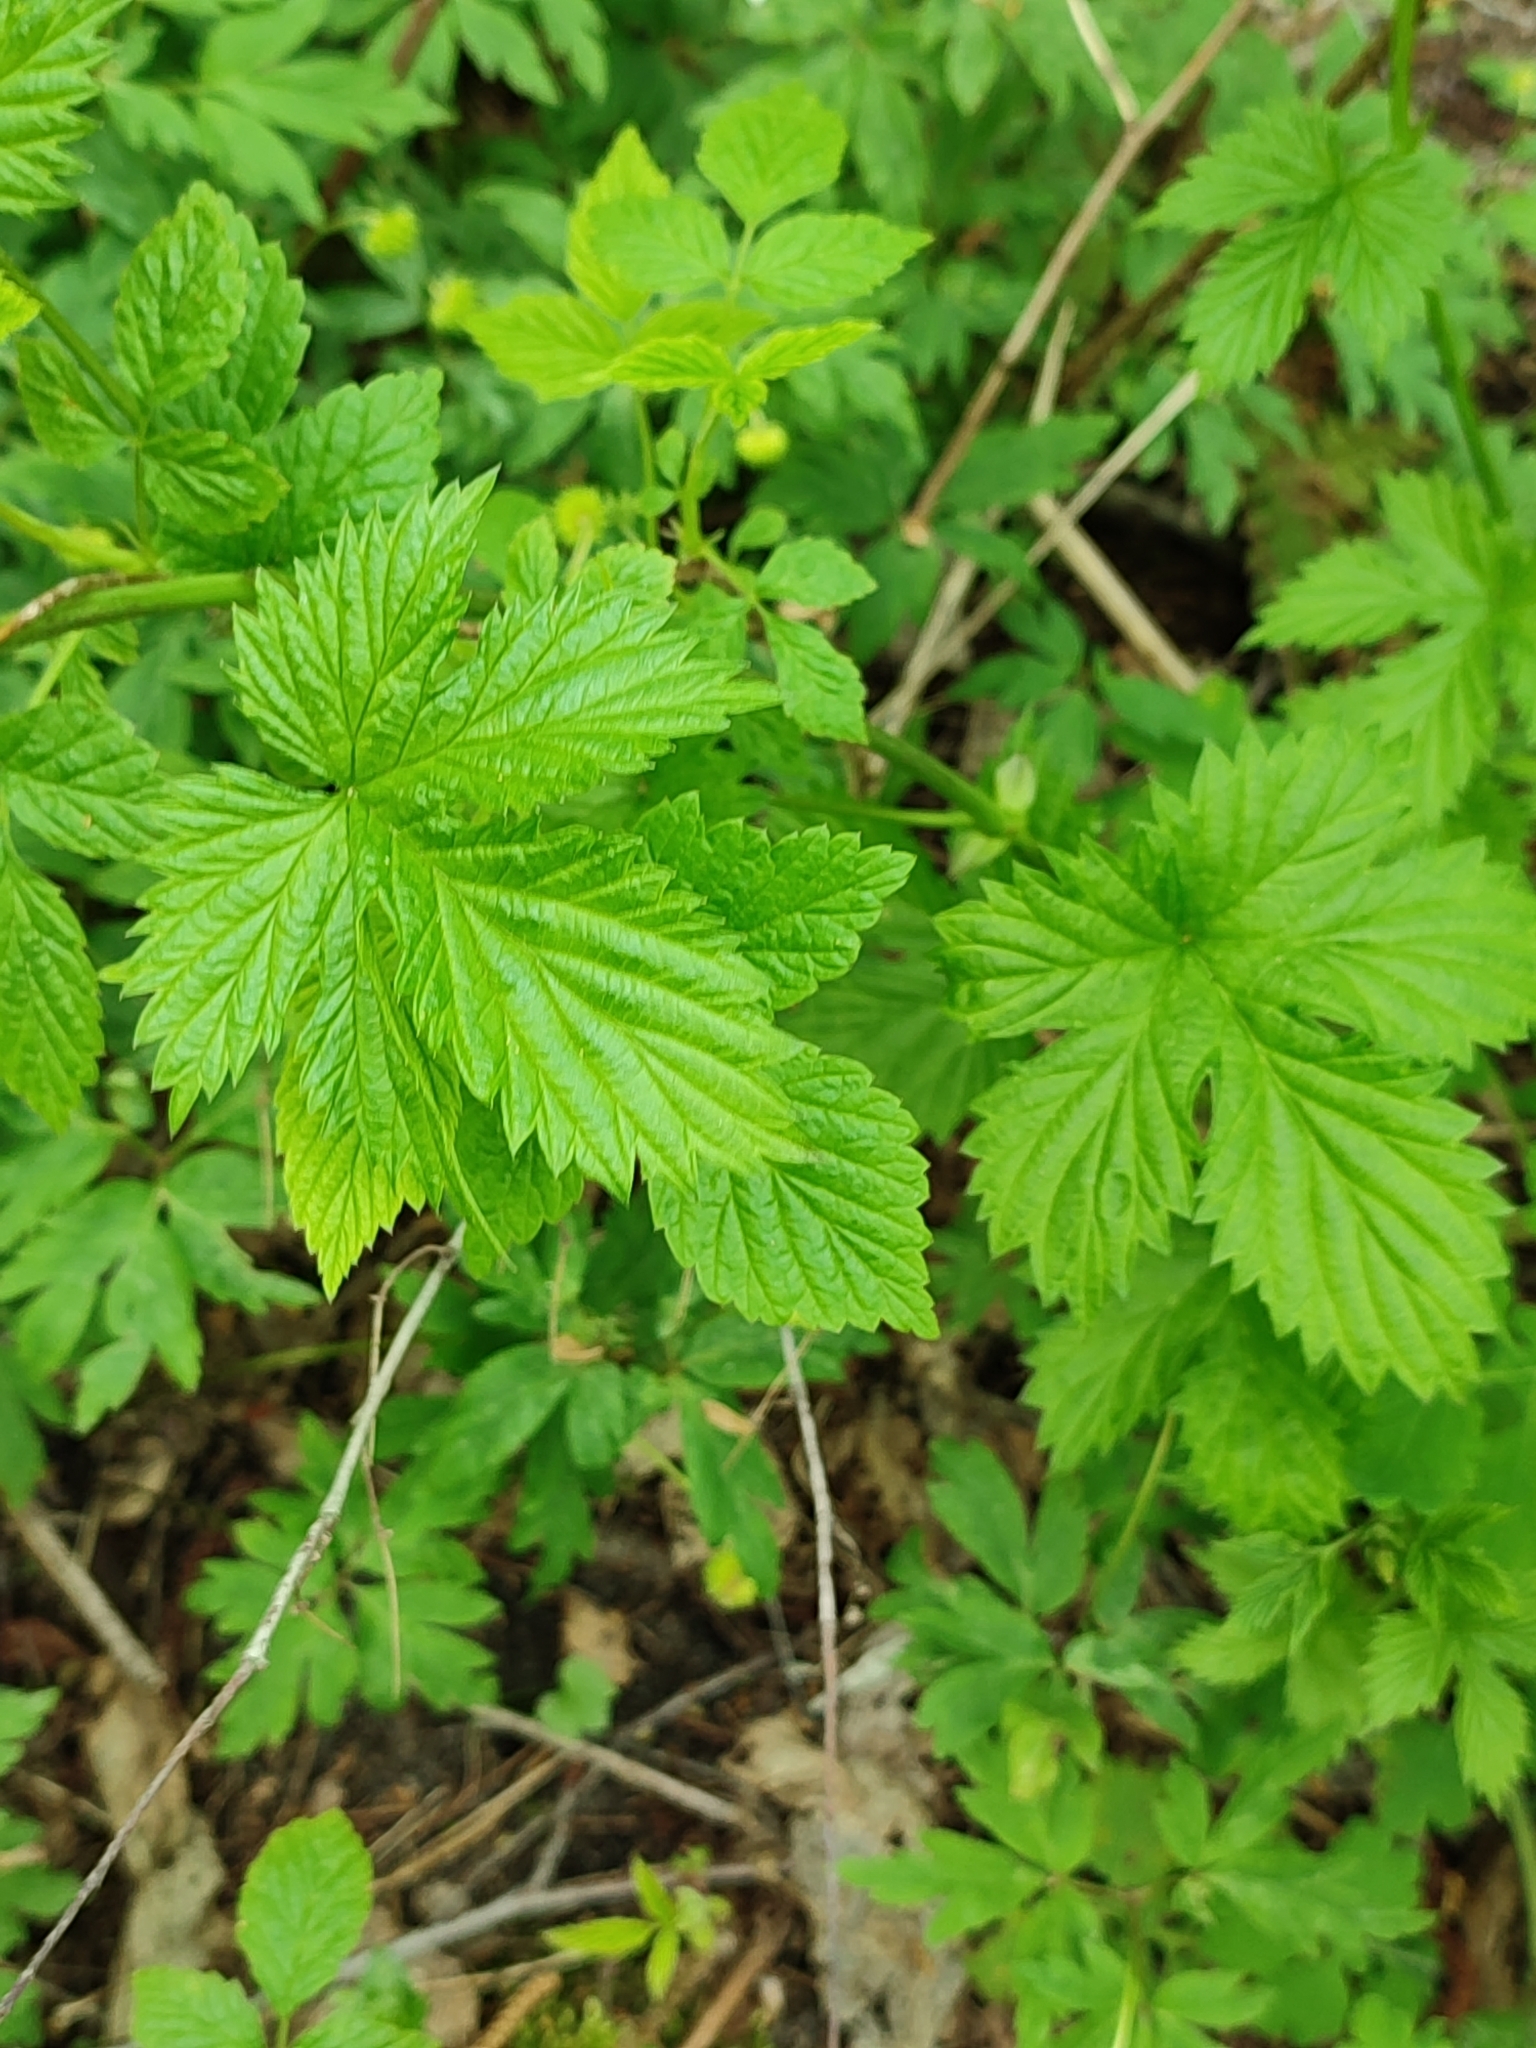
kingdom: Plantae
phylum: Tracheophyta
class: Magnoliopsida
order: Rosales
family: Cannabaceae
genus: Humulus
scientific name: Humulus lupulus
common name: Hop
